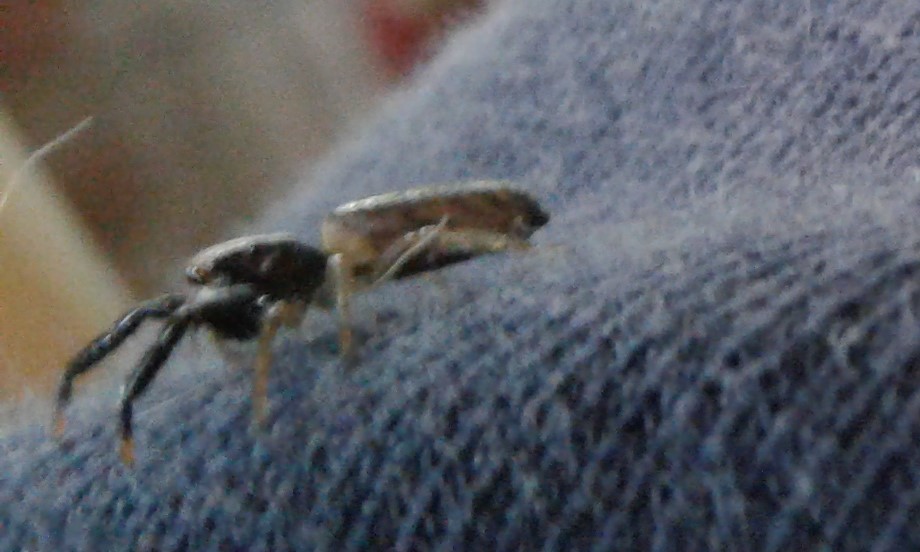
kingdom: Animalia
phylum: Arthropoda
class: Arachnida
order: Araneae
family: Salticidae
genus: Trite
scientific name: Trite planiceps
